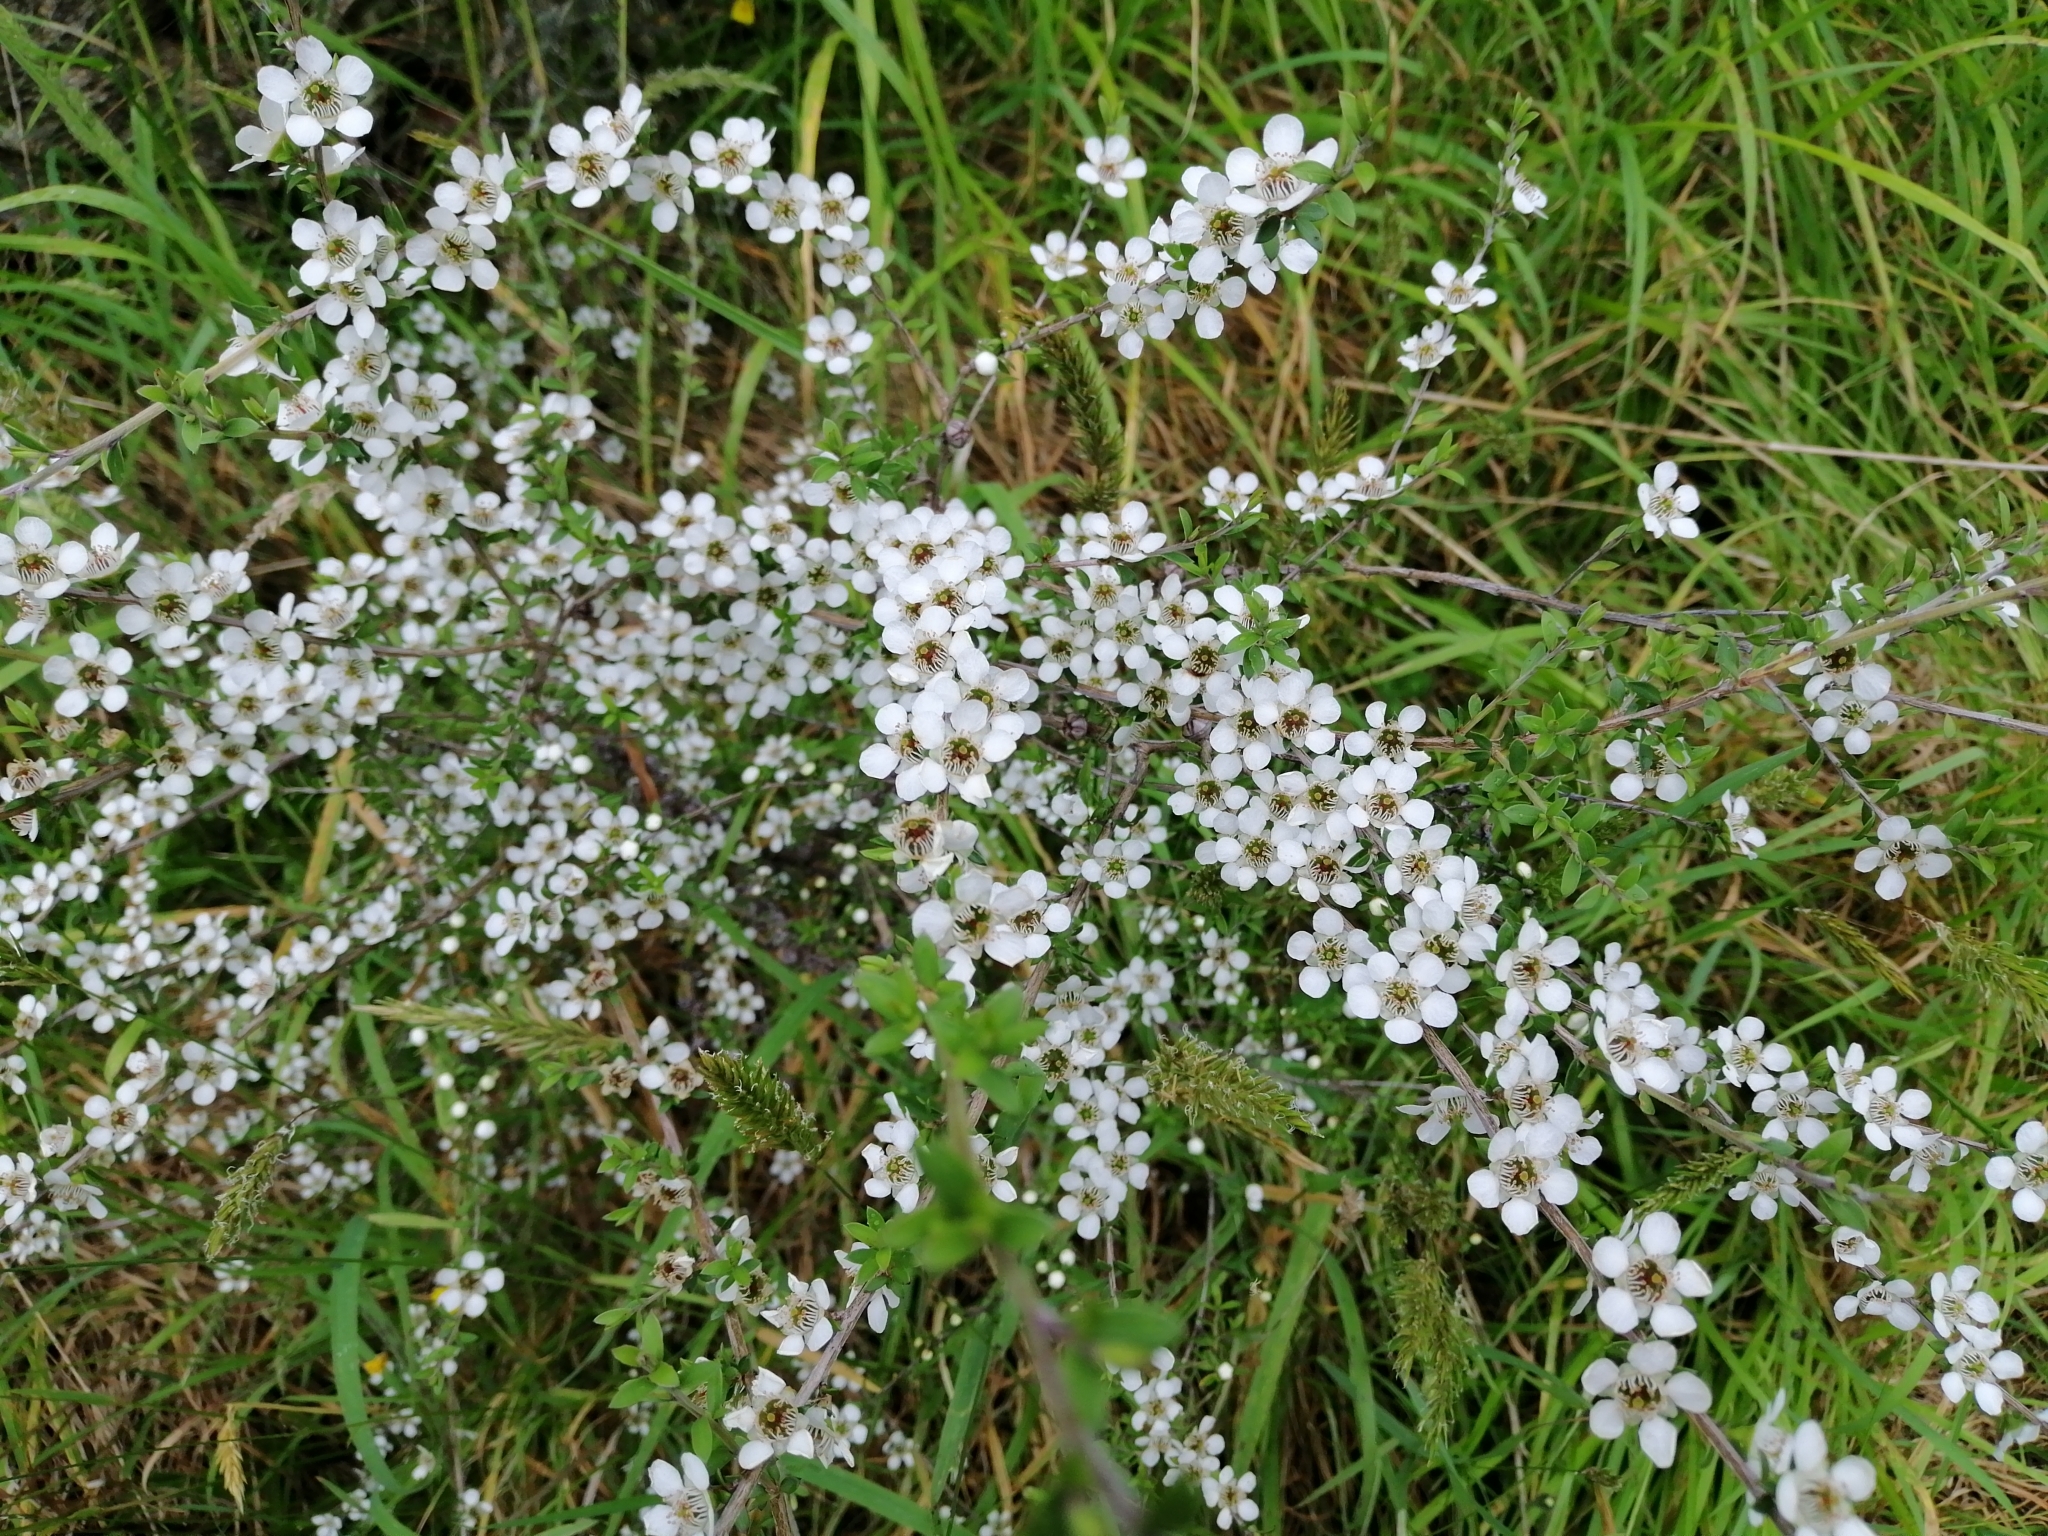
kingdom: Plantae
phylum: Tracheophyta
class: Magnoliopsida
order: Myrtales
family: Myrtaceae
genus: Leptospermum
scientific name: Leptospermum scoparium
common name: Broom tea-tree
